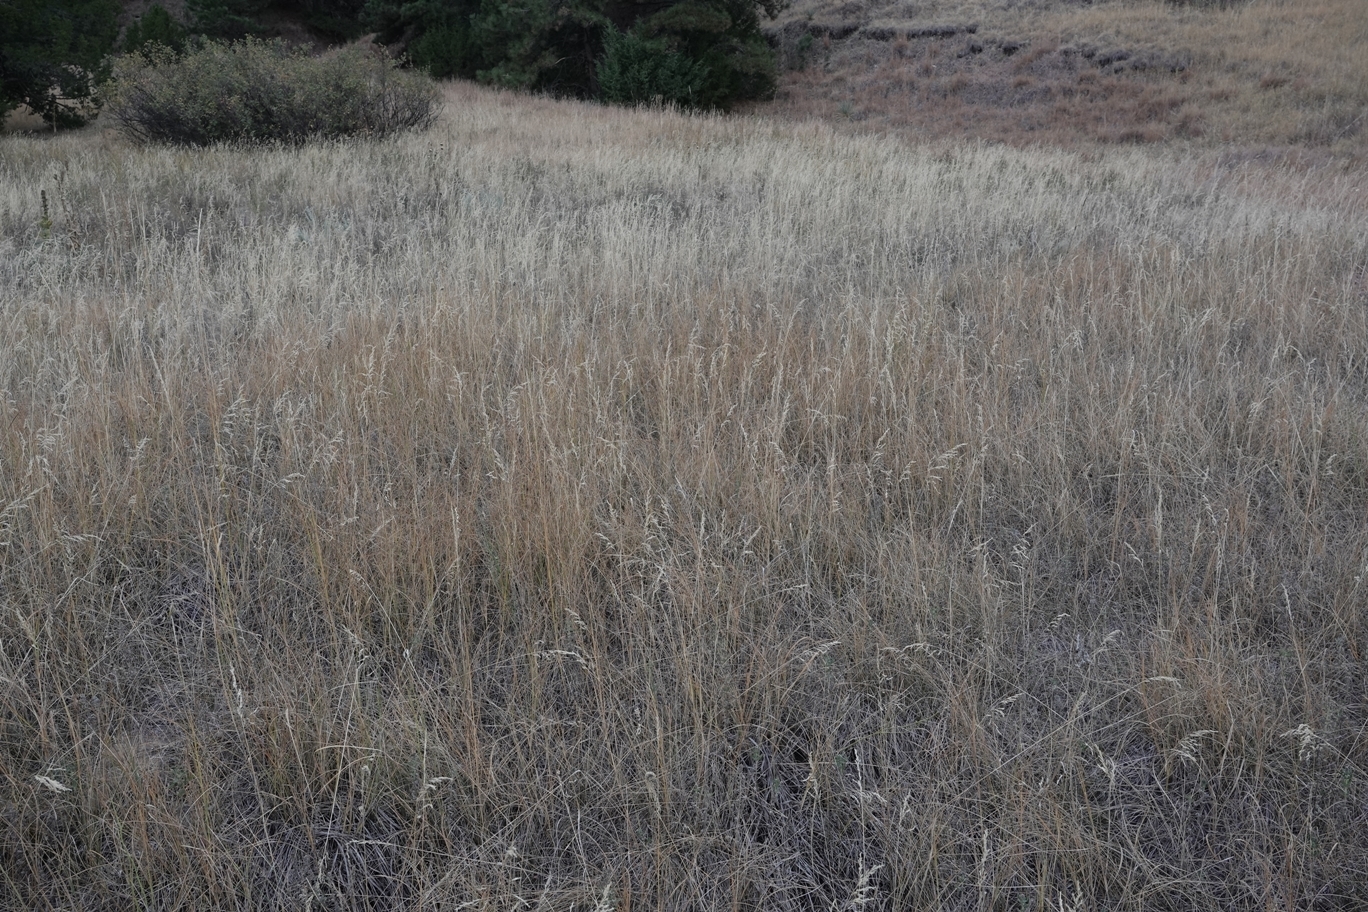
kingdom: Plantae
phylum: Tracheophyta
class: Liliopsida
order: Poales
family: Poaceae
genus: Poa
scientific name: Poa pratensis
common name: Kentucky bluegrass
